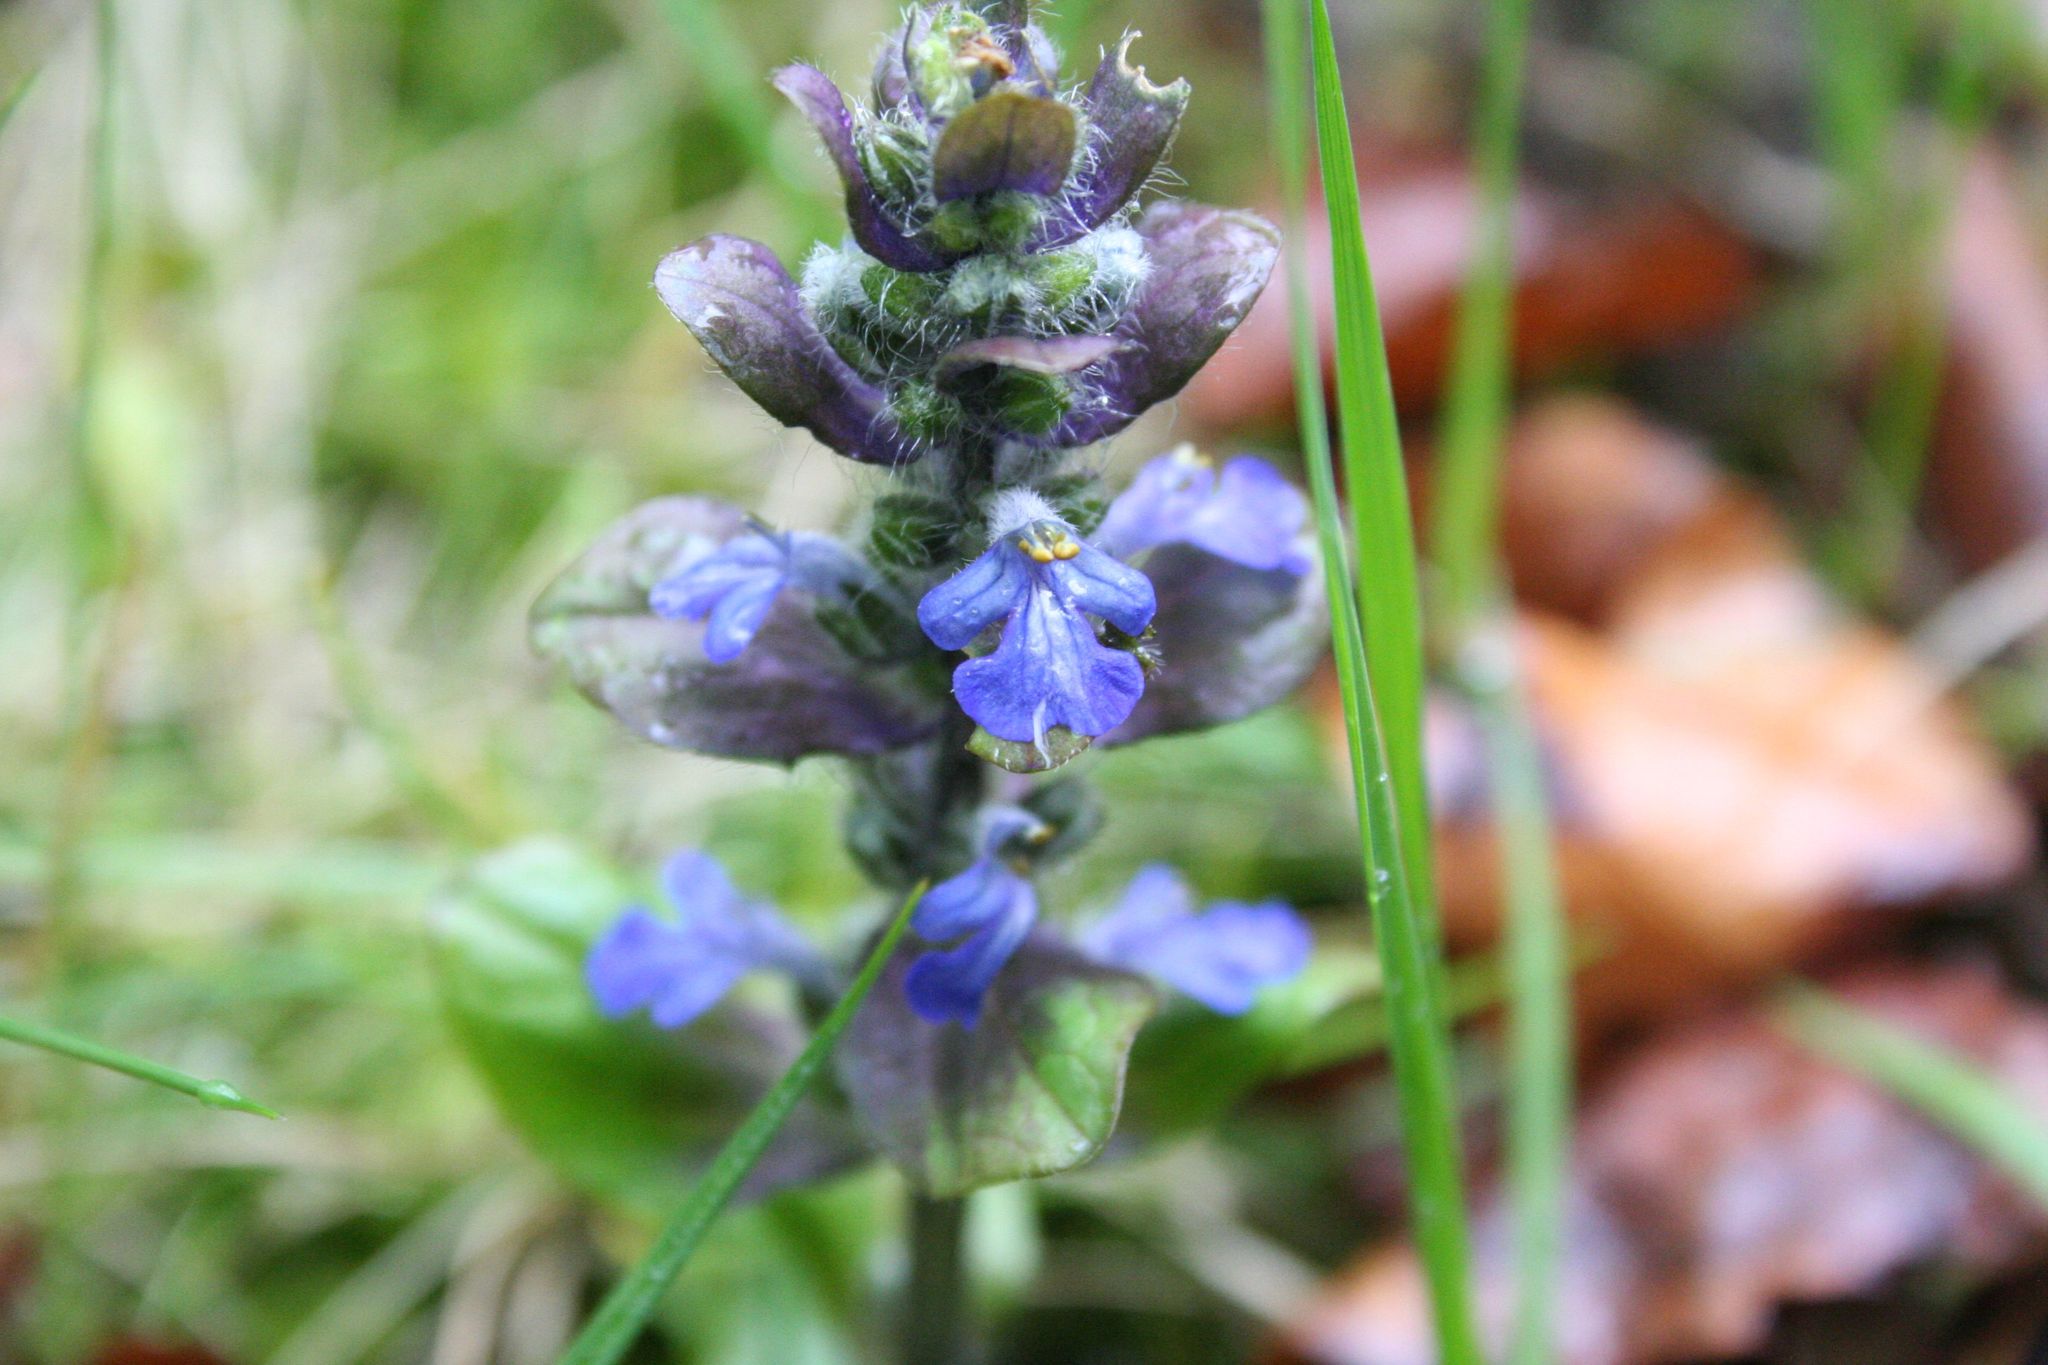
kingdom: Plantae
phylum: Tracheophyta
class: Magnoliopsida
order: Lamiales
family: Lamiaceae
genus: Ajuga
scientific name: Ajuga reptans
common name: Bugle
